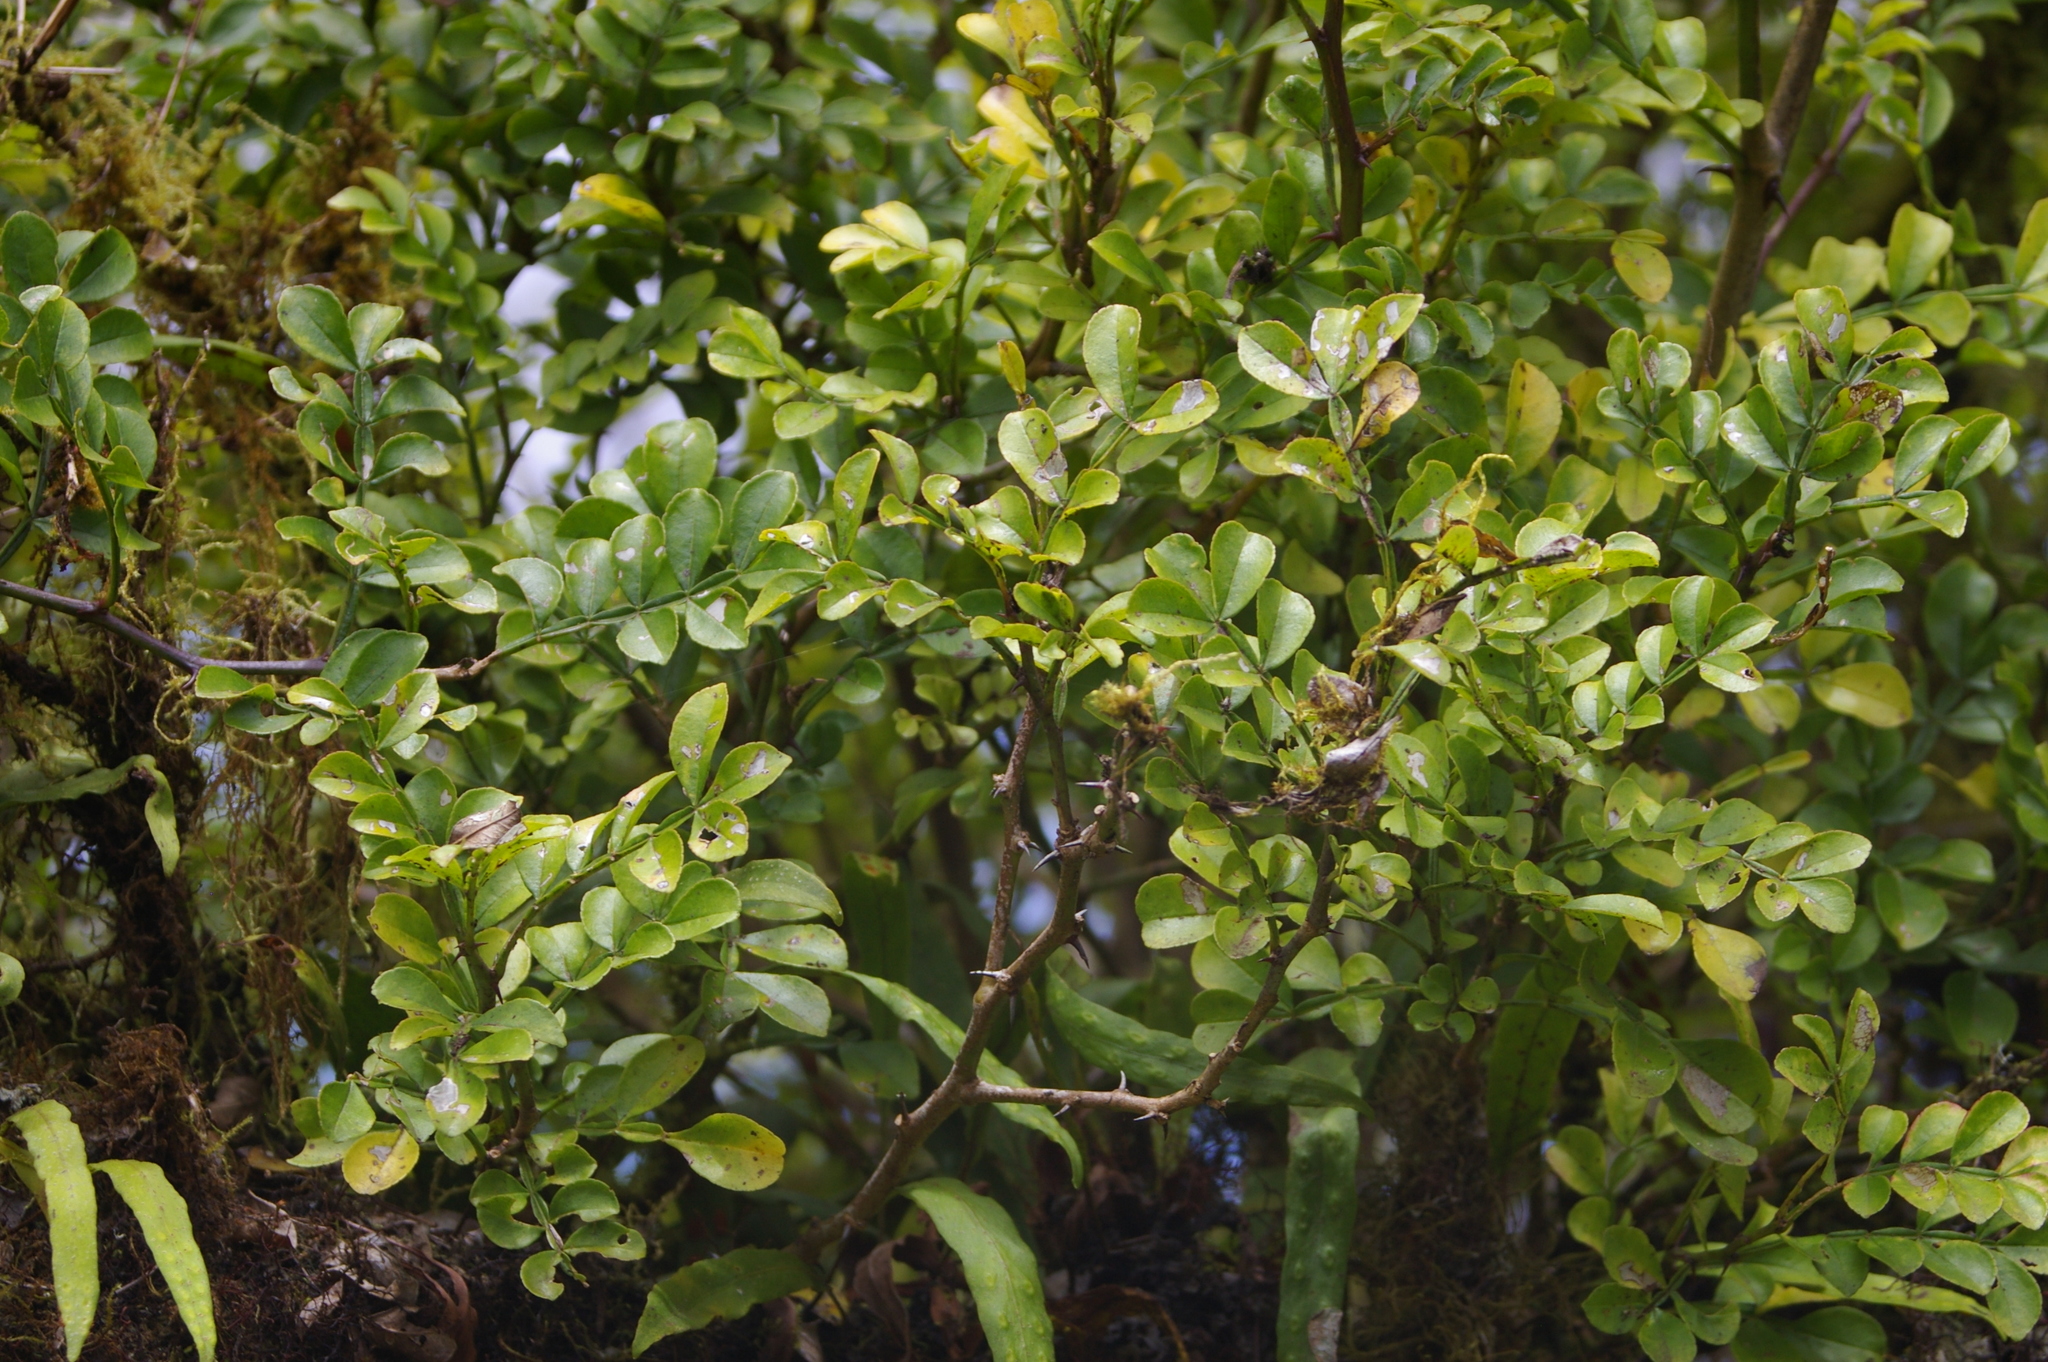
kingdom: Plantae
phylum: Tracheophyta
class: Magnoliopsida
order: Sapindales
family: Rutaceae
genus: Zanthoxylum
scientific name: Zanthoxylum fagara
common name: Lime prickly-ash
